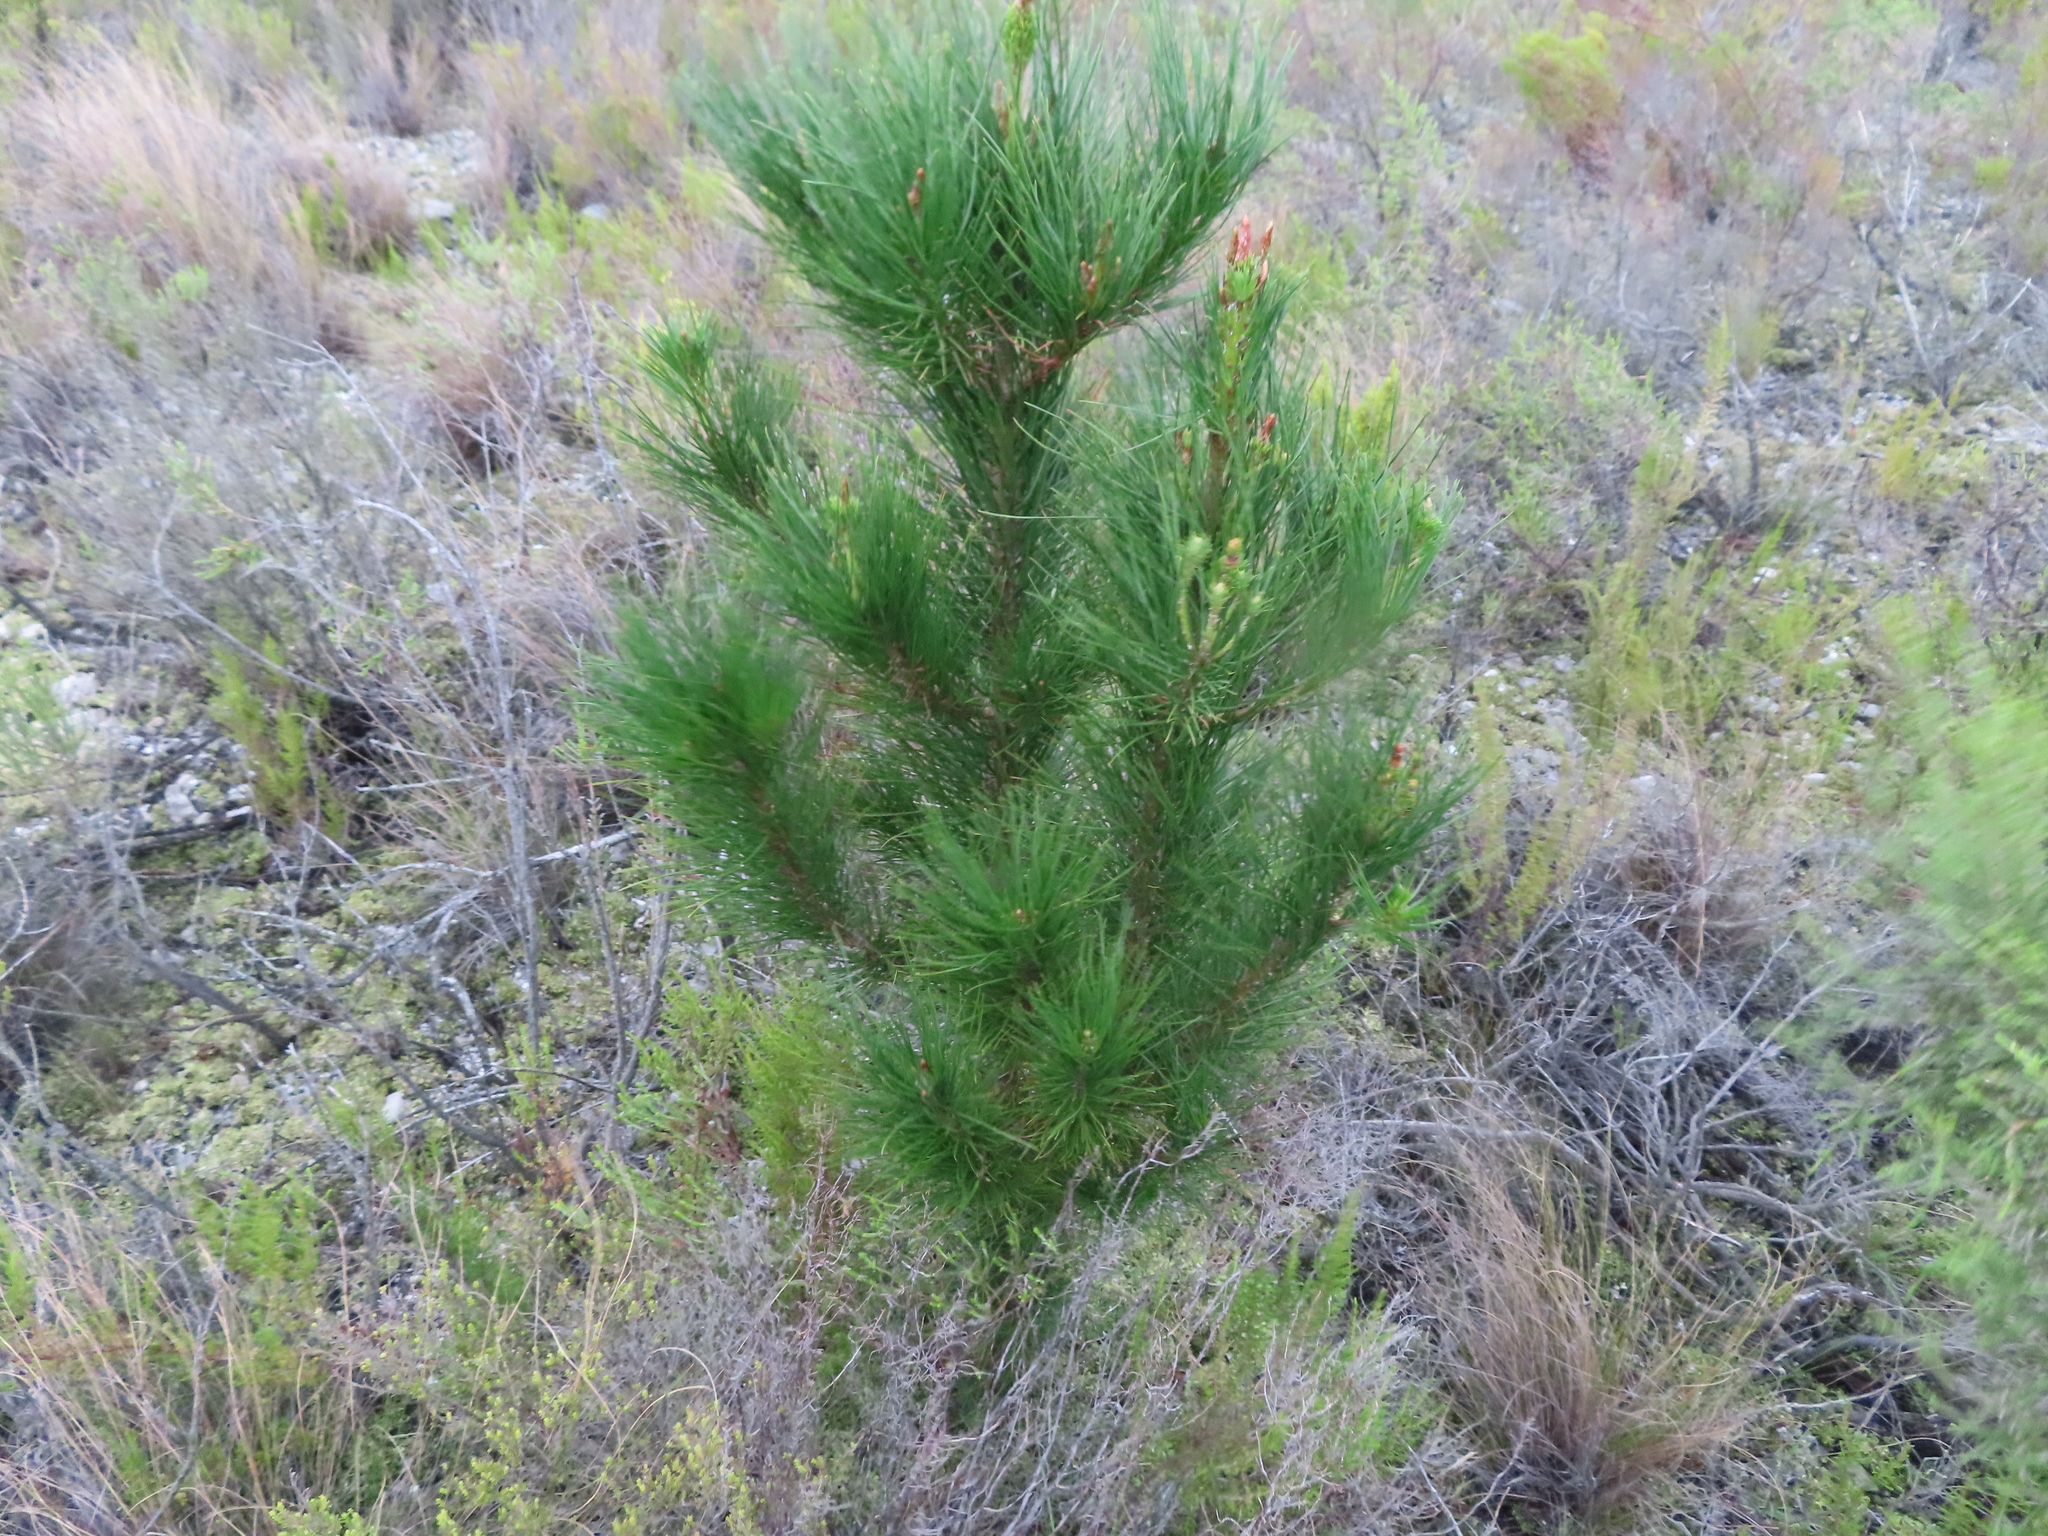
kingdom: Plantae
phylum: Tracheophyta
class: Pinopsida
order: Pinales
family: Pinaceae
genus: Pinus
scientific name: Pinus pinaster
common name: Maritime pine
